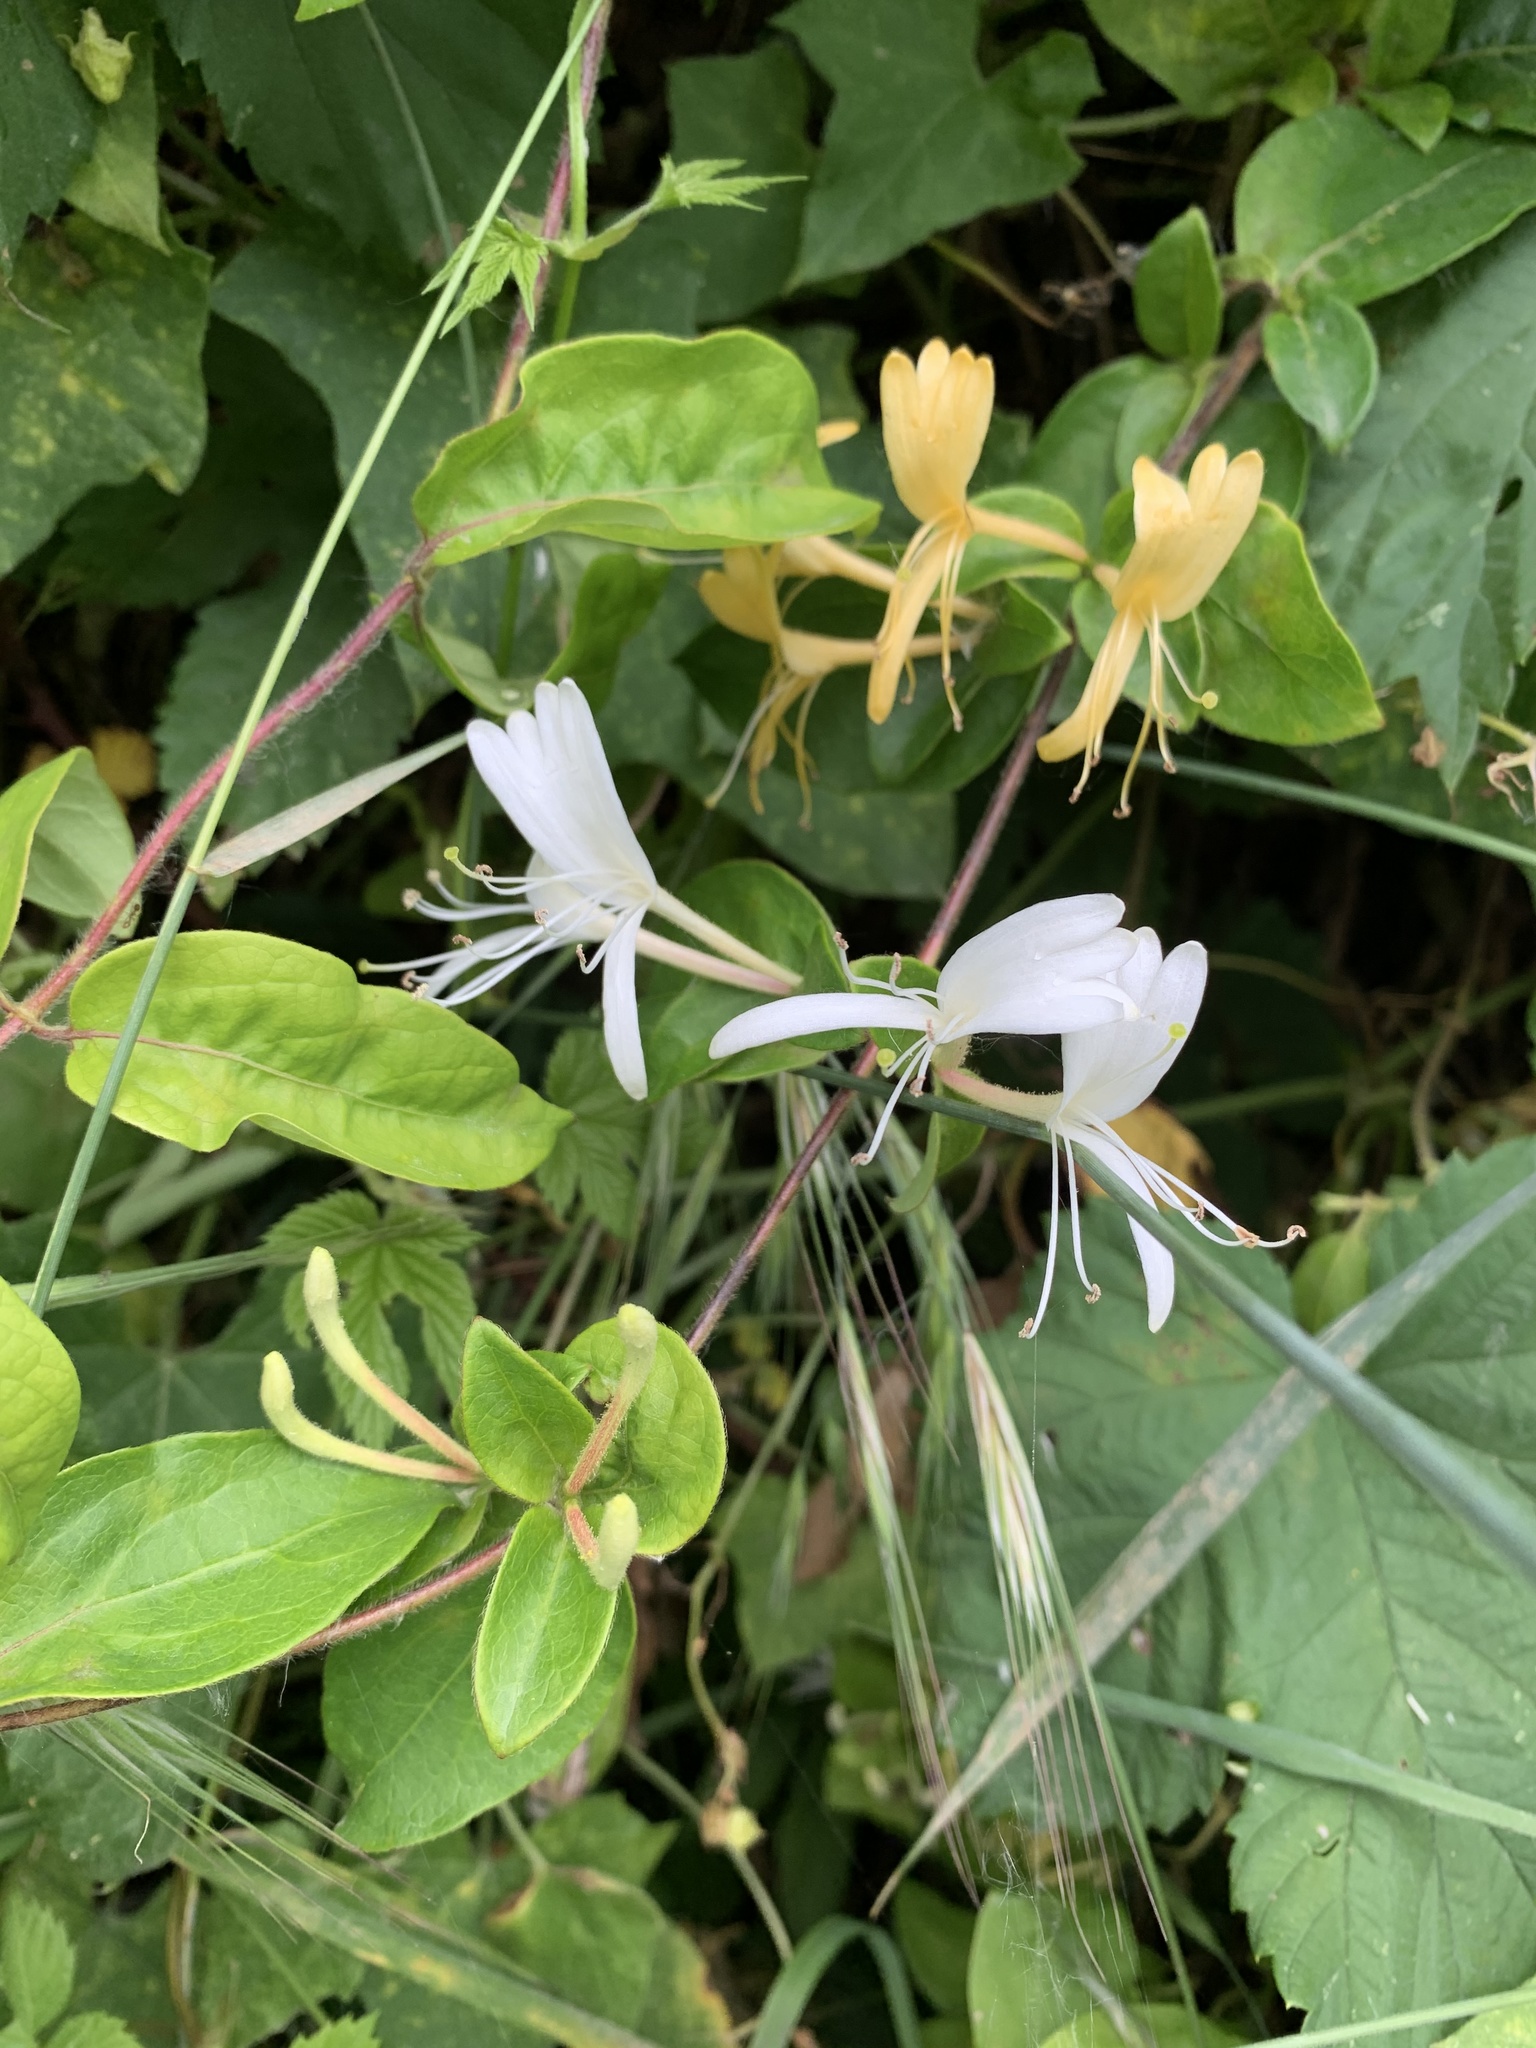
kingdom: Plantae
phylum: Tracheophyta
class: Magnoliopsida
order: Dipsacales
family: Caprifoliaceae
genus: Lonicera
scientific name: Lonicera japonica
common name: Japanese honeysuckle
